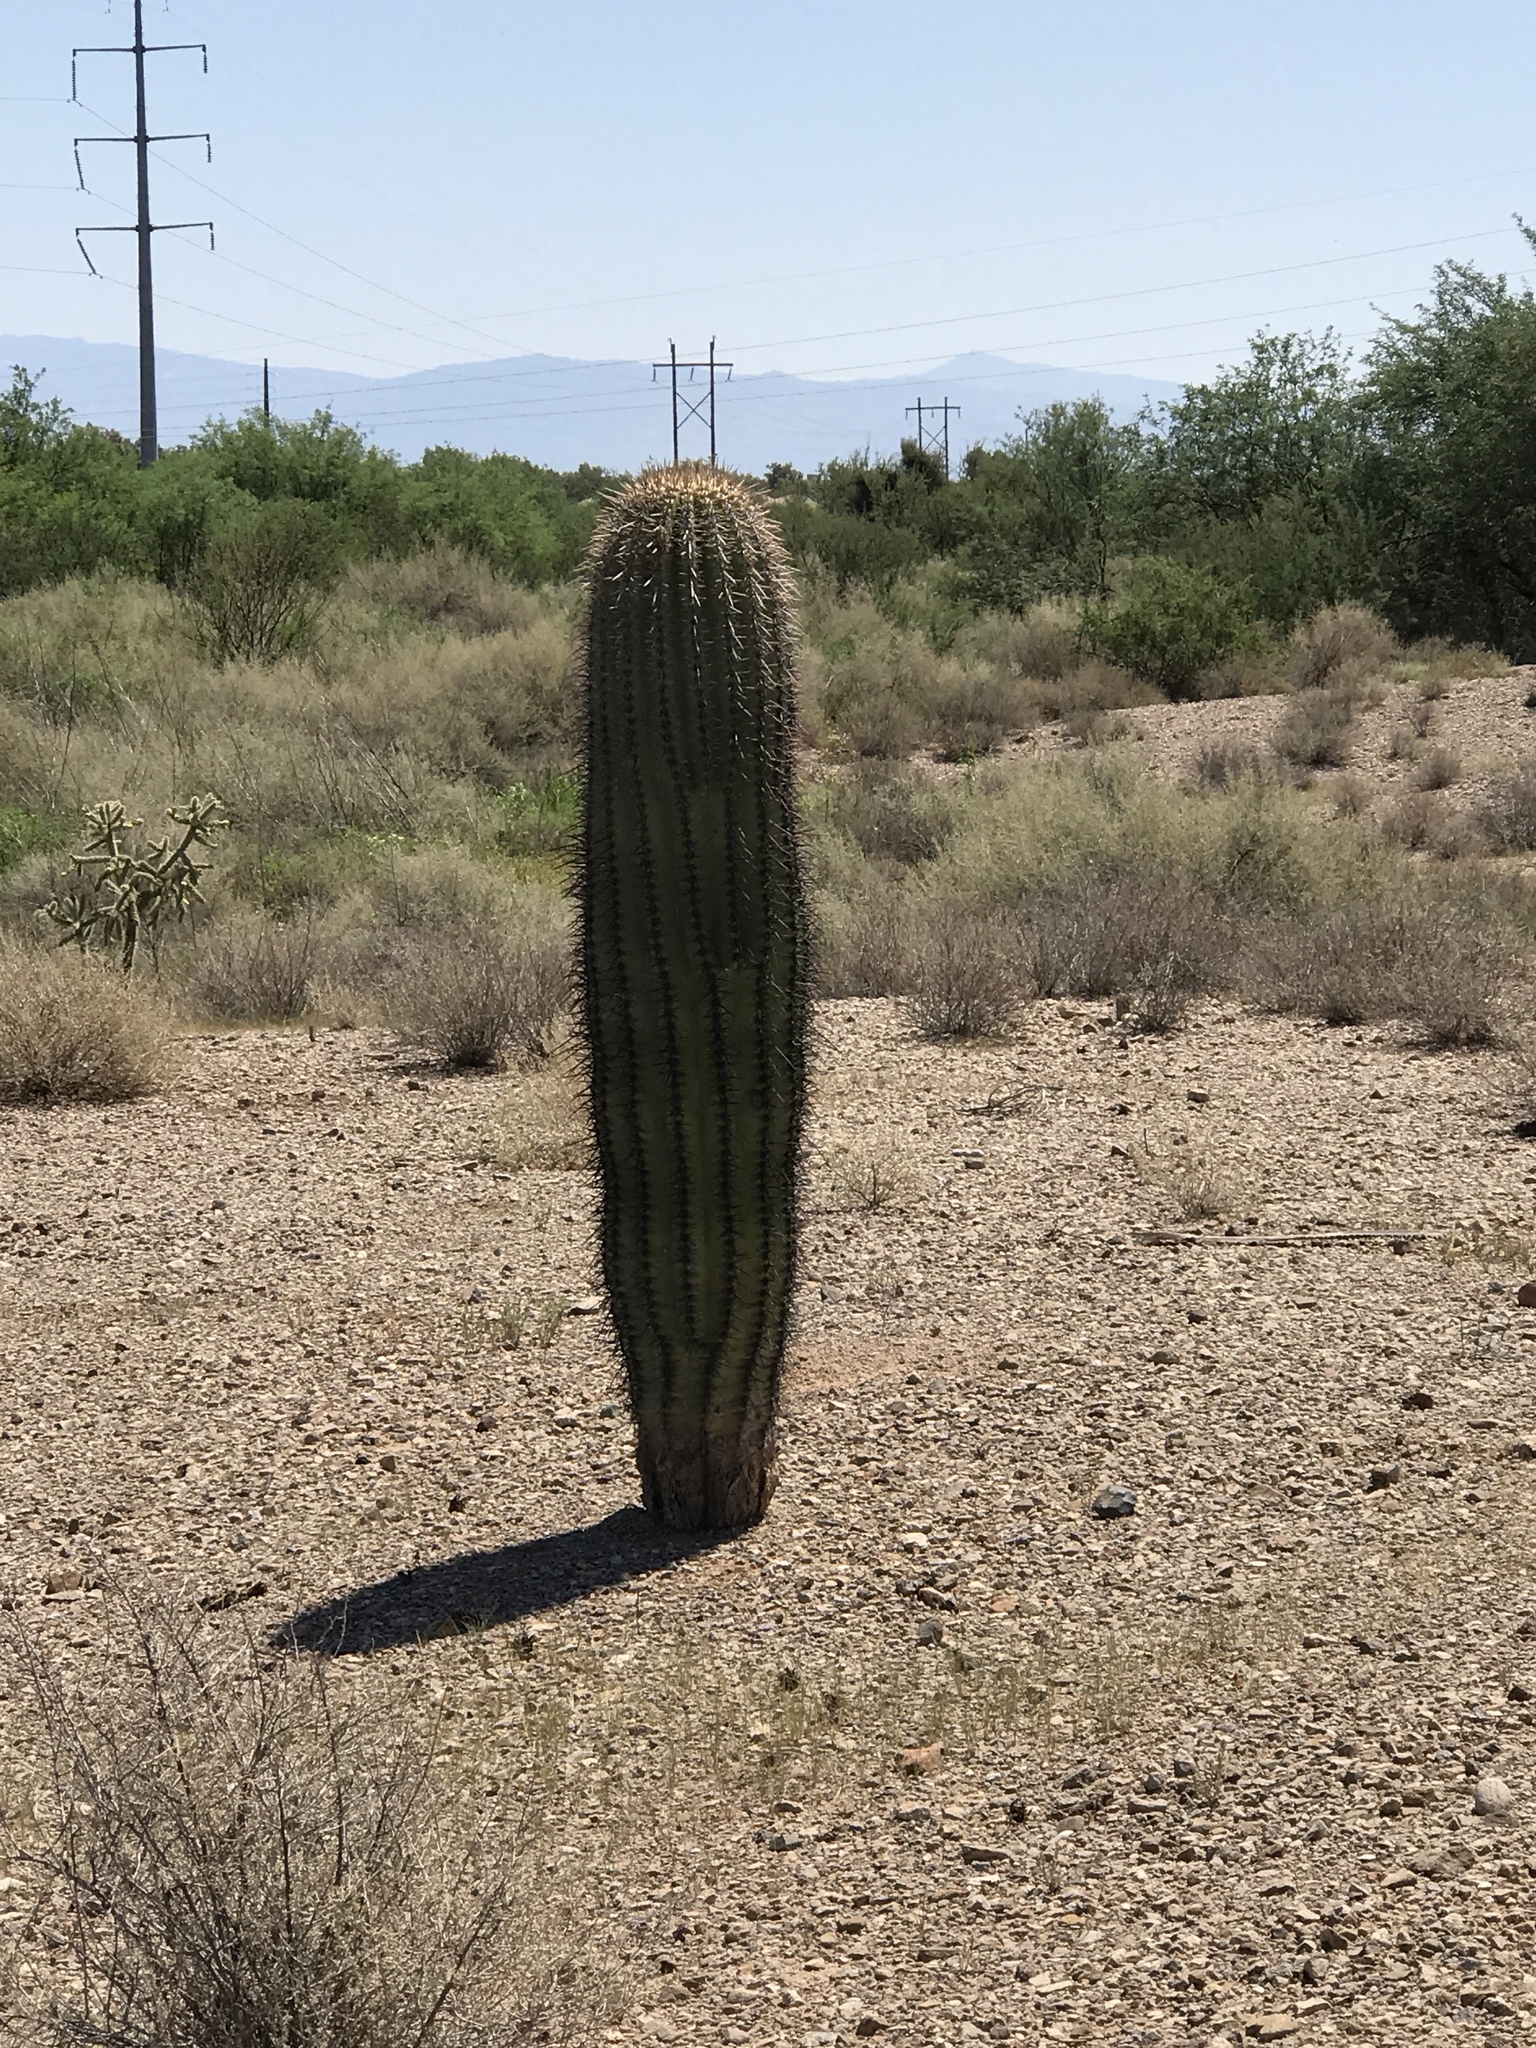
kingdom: Plantae
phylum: Tracheophyta
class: Magnoliopsida
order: Caryophyllales
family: Cactaceae
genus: Carnegiea
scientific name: Carnegiea gigantea
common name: Saguaro
